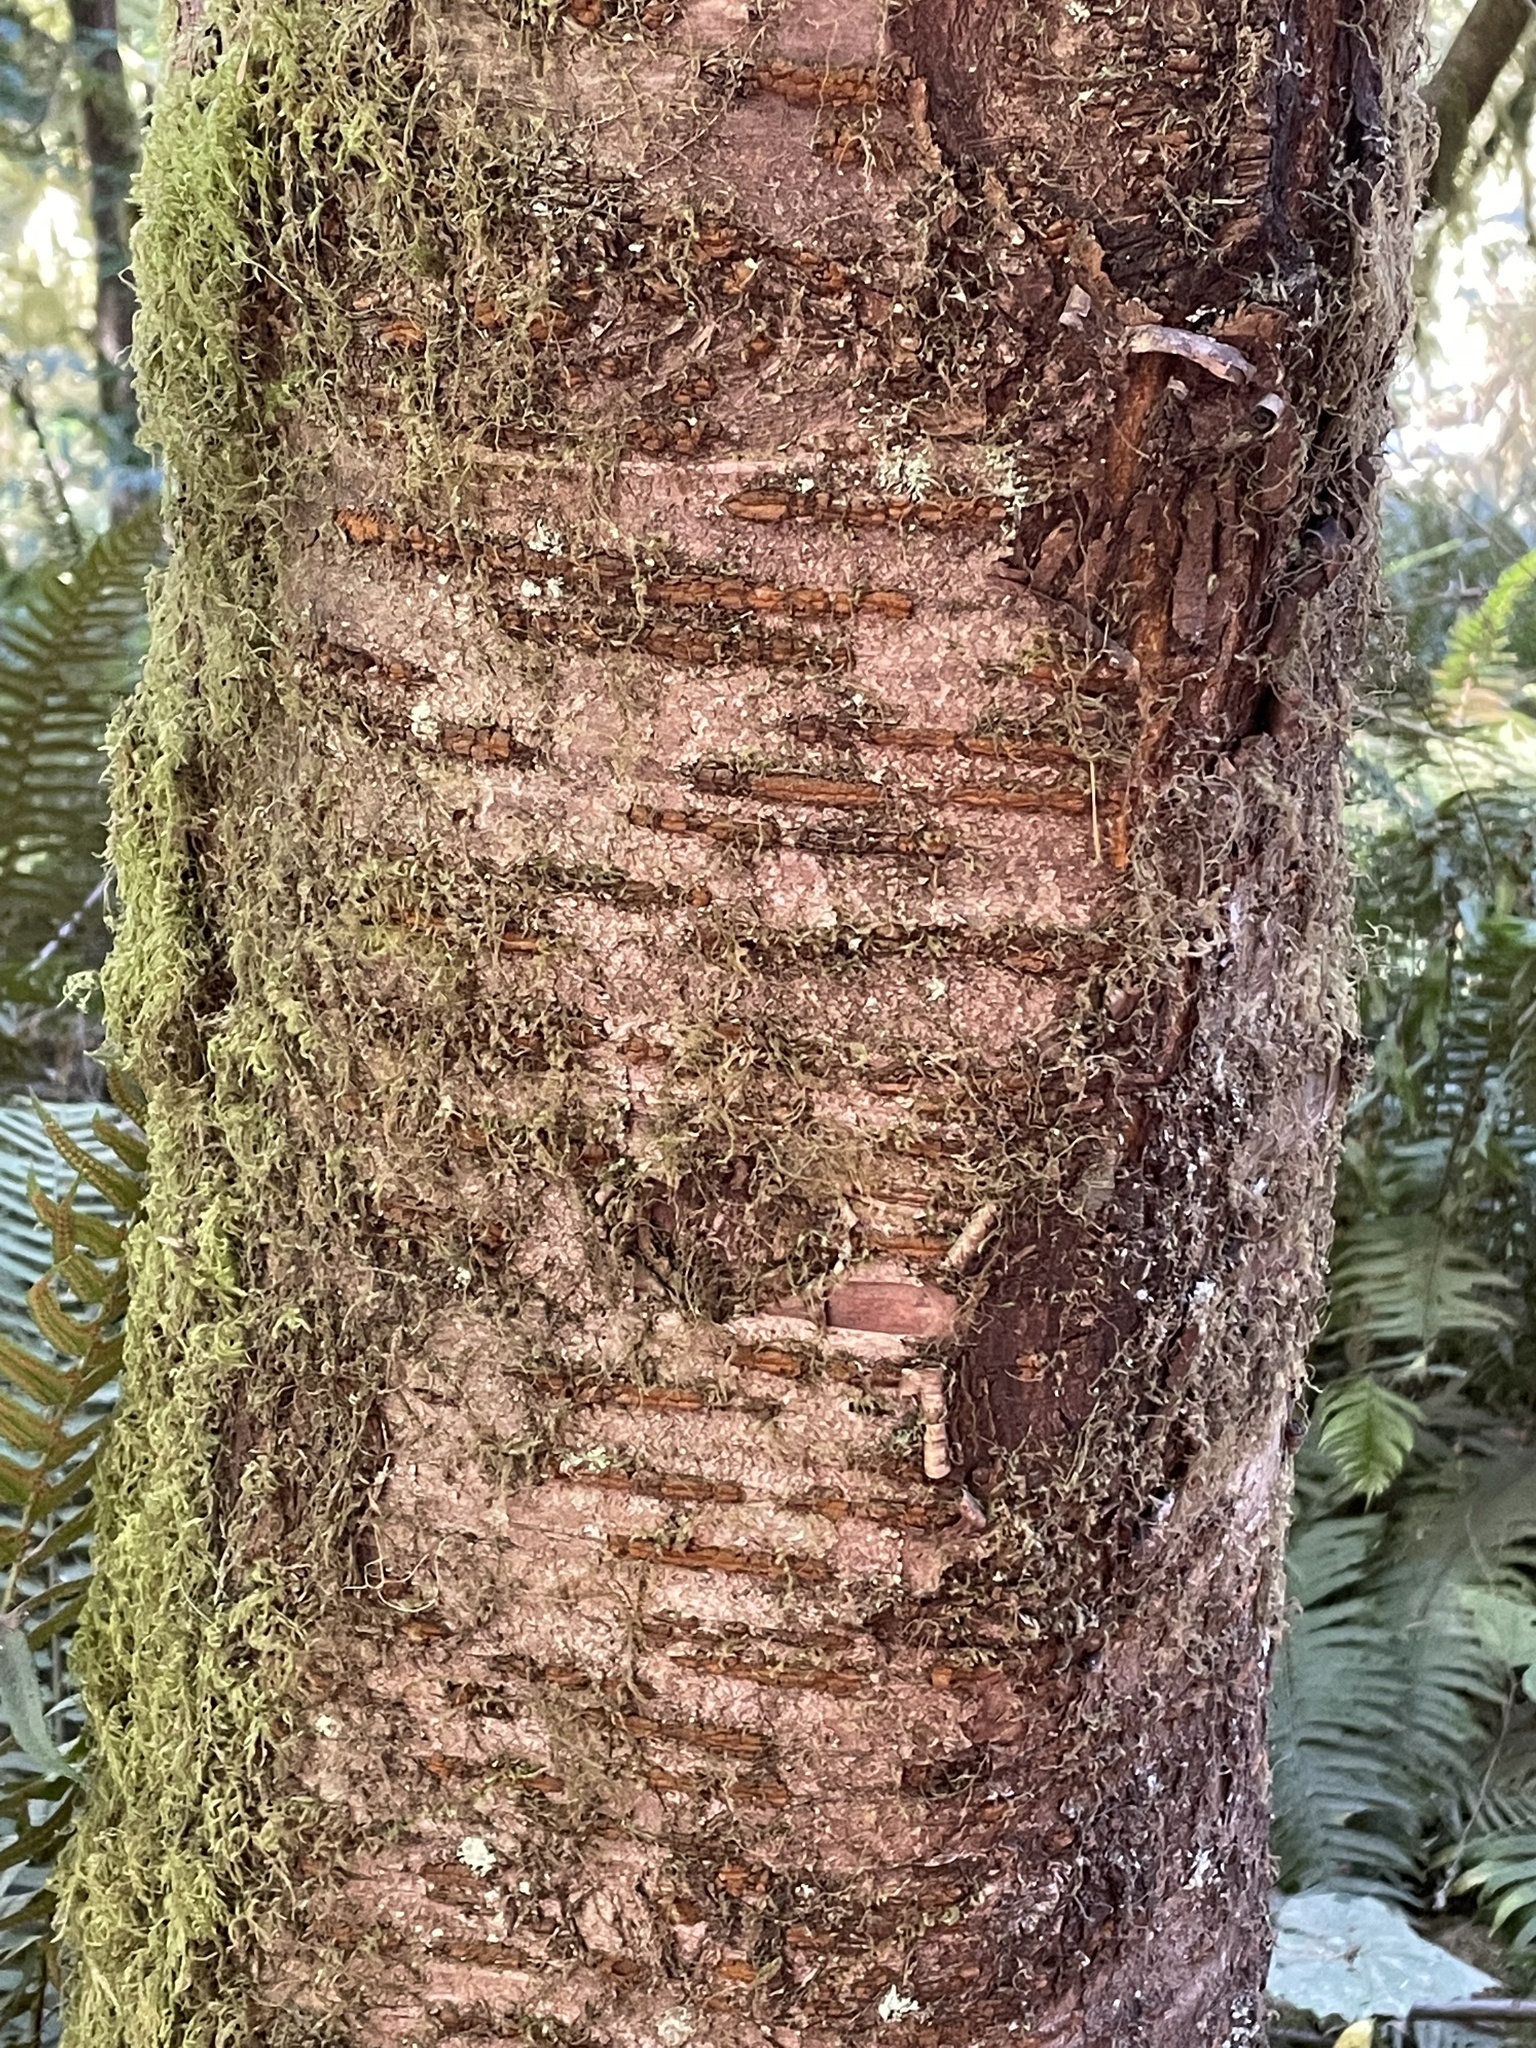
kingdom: Plantae
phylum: Tracheophyta
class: Magnoliopsida
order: Rosales
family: Rosaceae
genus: Prunus
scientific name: Prunus emarginata
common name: Bitter cherry
